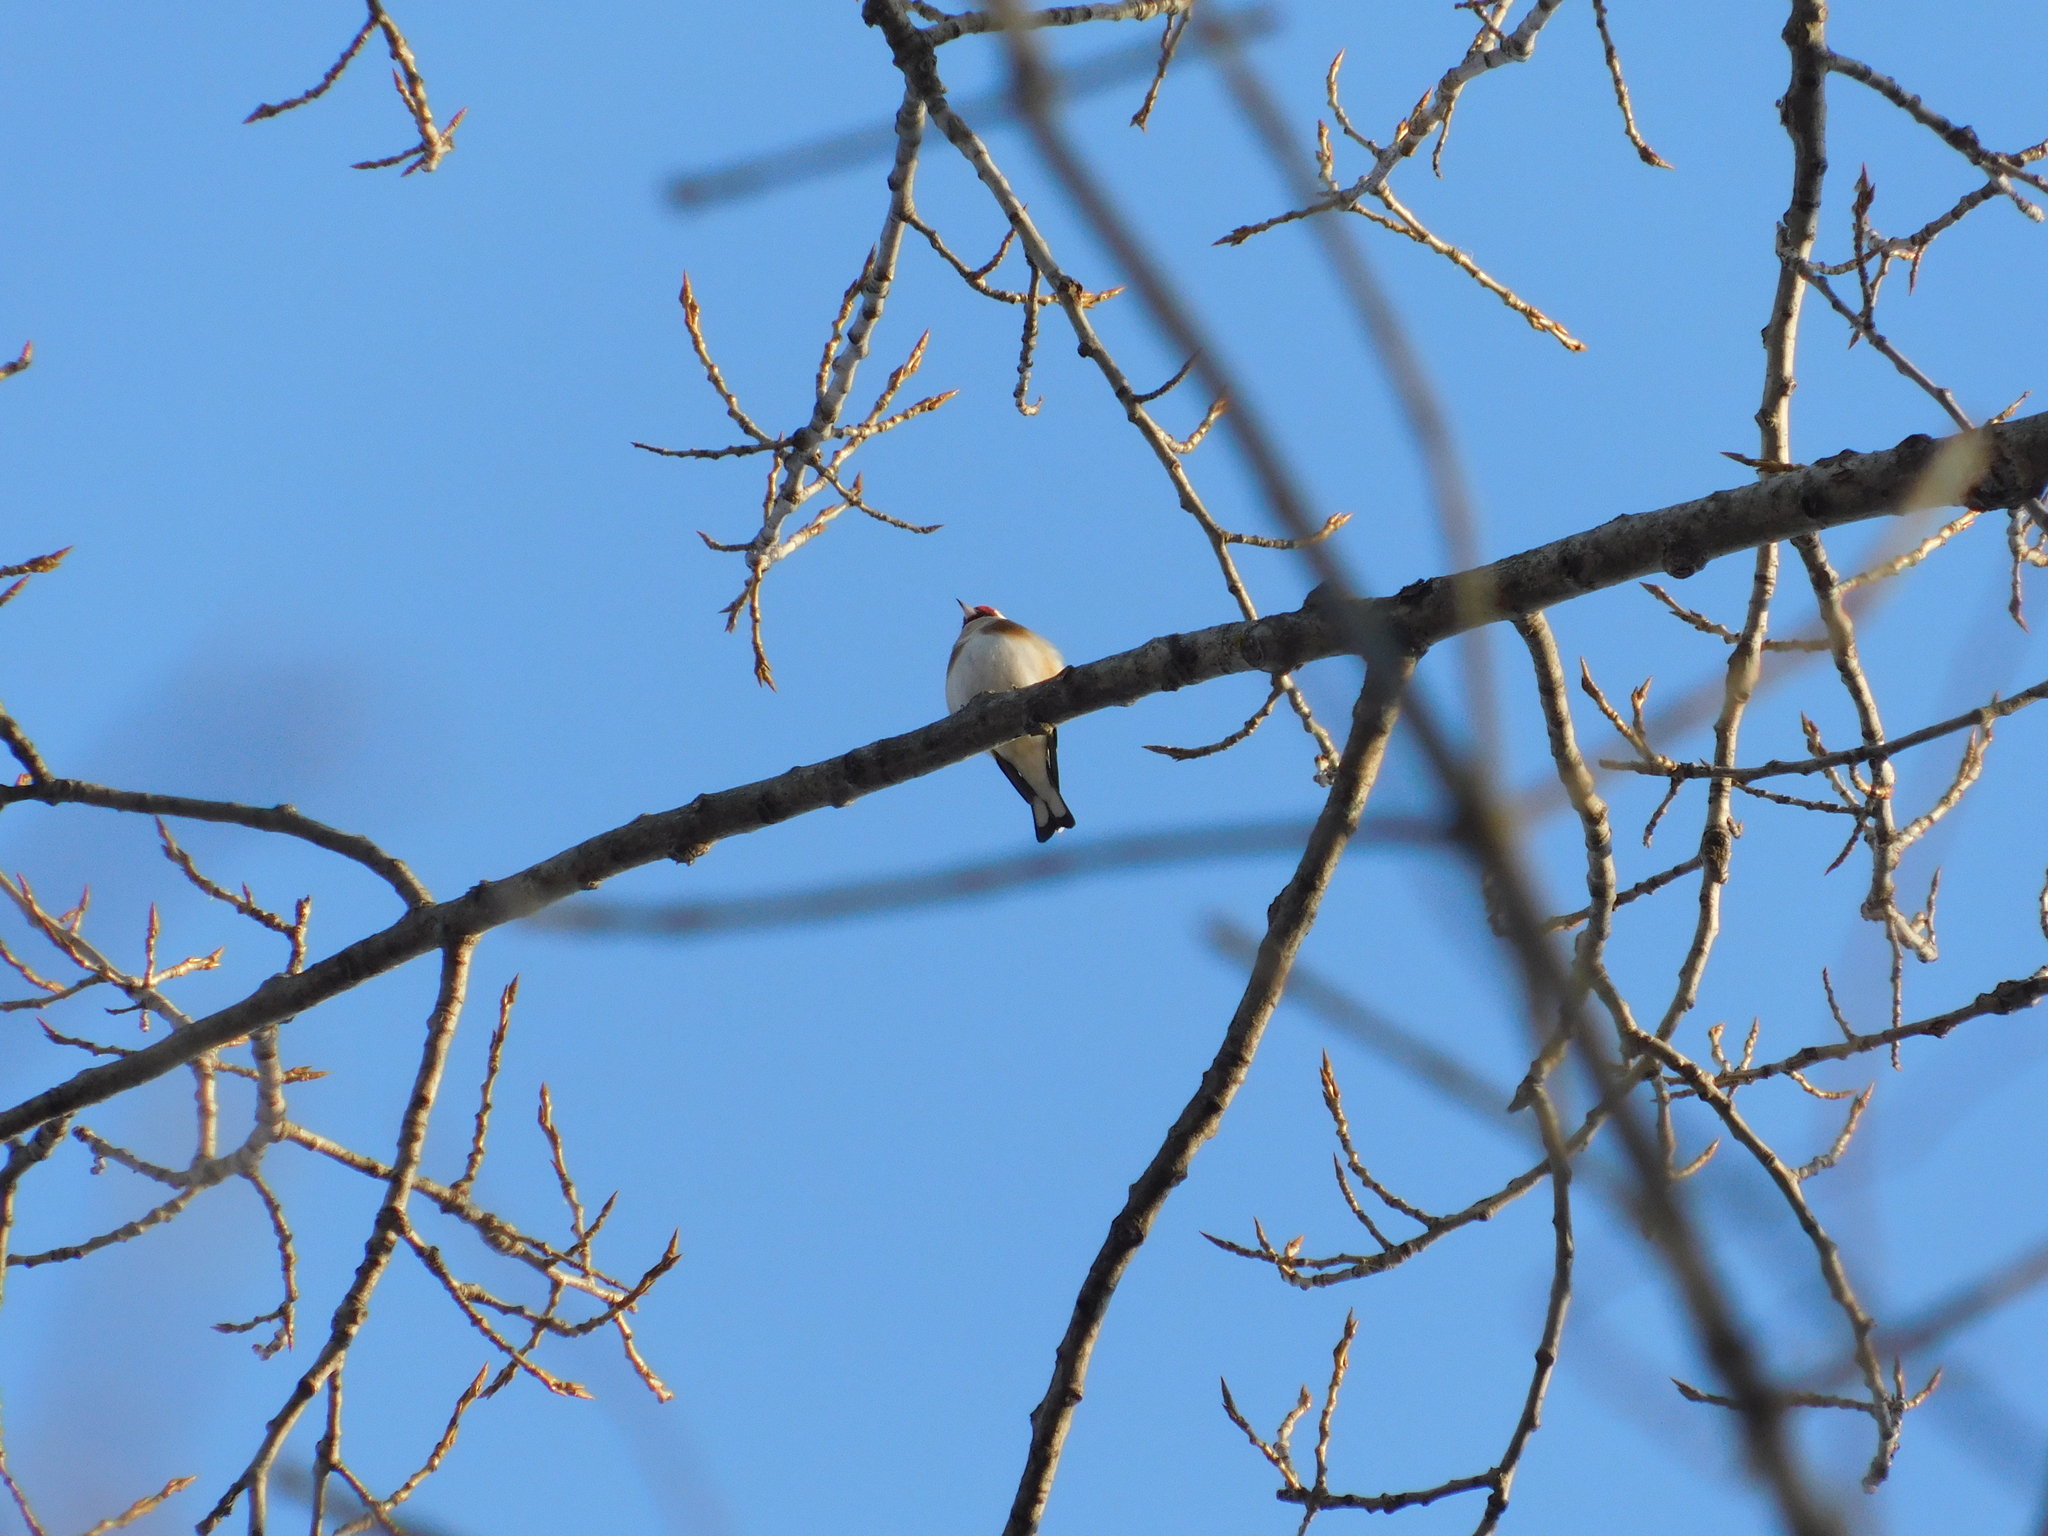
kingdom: Animalia
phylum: Chordata
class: Aves
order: Passeriformes
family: Fringillidae
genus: Carduelis
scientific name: Carduelis carduelis
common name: European goldfinch
